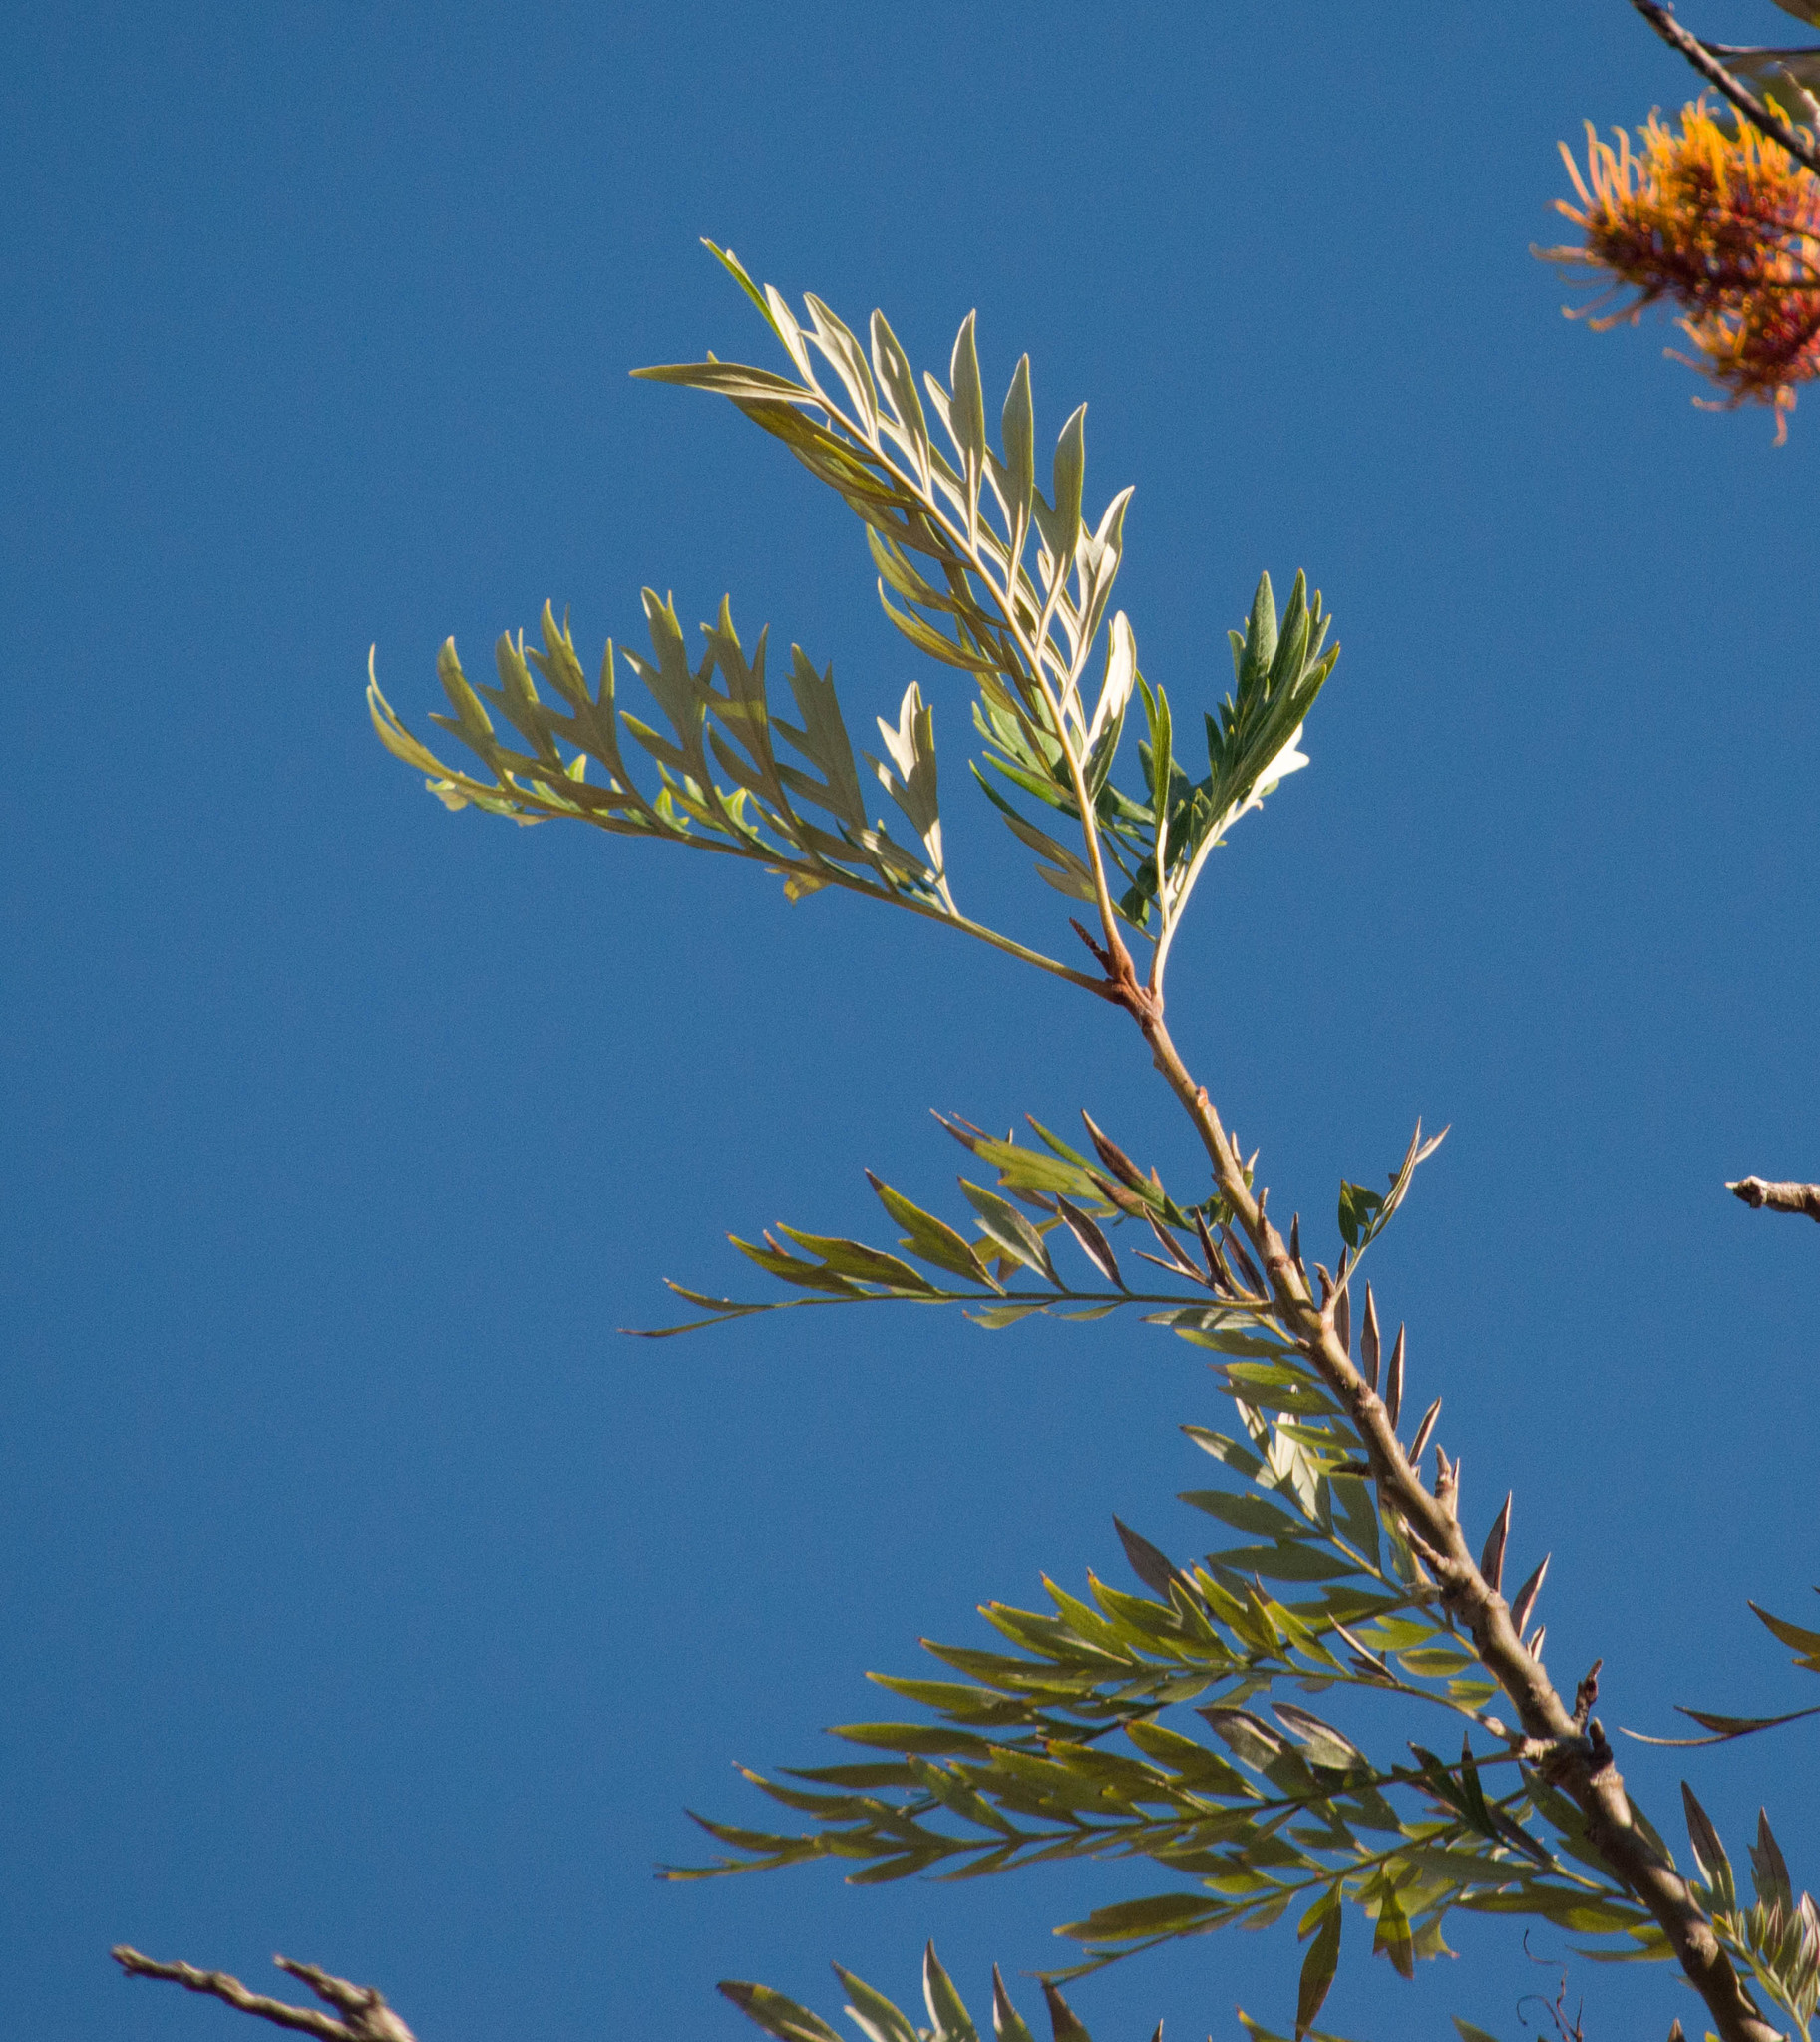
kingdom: Plantae
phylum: Tracheophyta
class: Magnoliopsida
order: Proteales
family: Proteaceae
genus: Grevillea
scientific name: Grevillea robusta
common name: Silkoak
